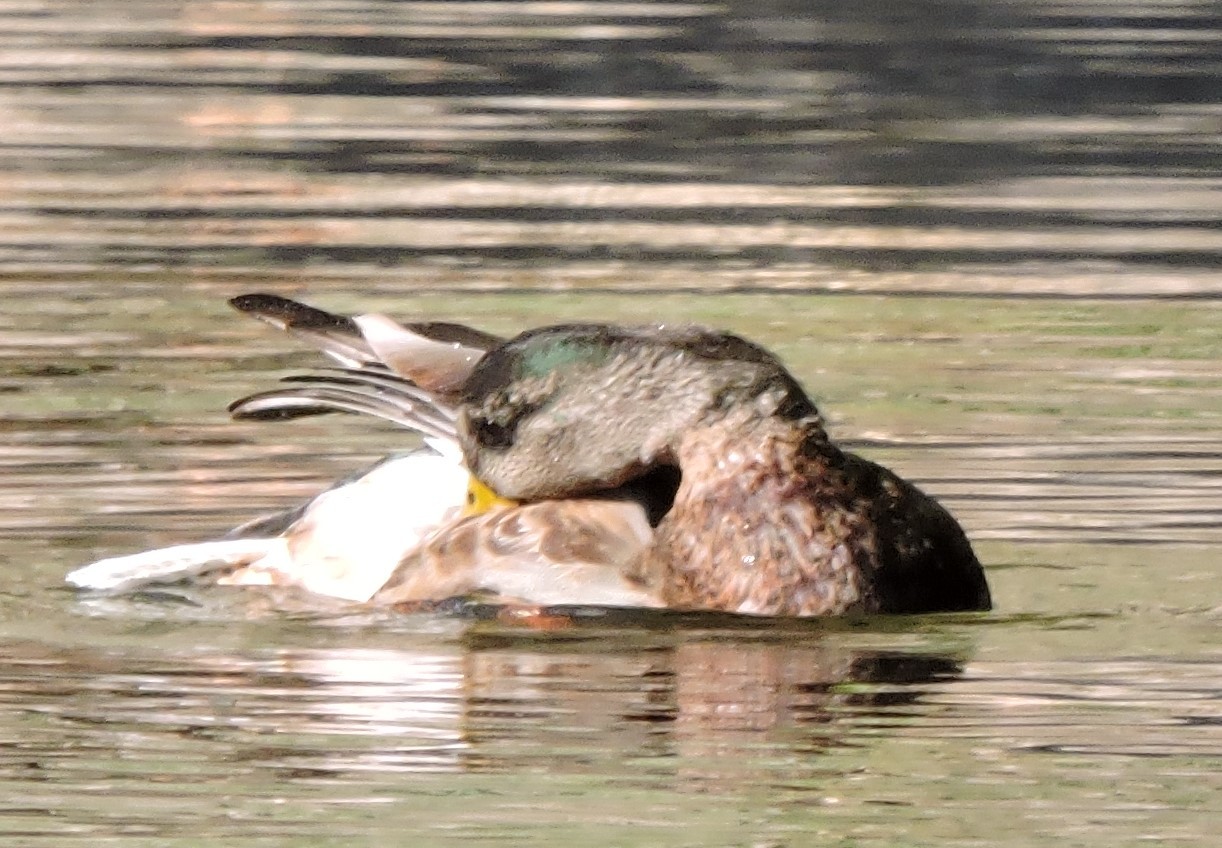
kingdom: Animalia
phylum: Chordata
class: Aves
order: Anseriformes
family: Anatidae
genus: Anas
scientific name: Anas platyrhynchos
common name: Mallard
